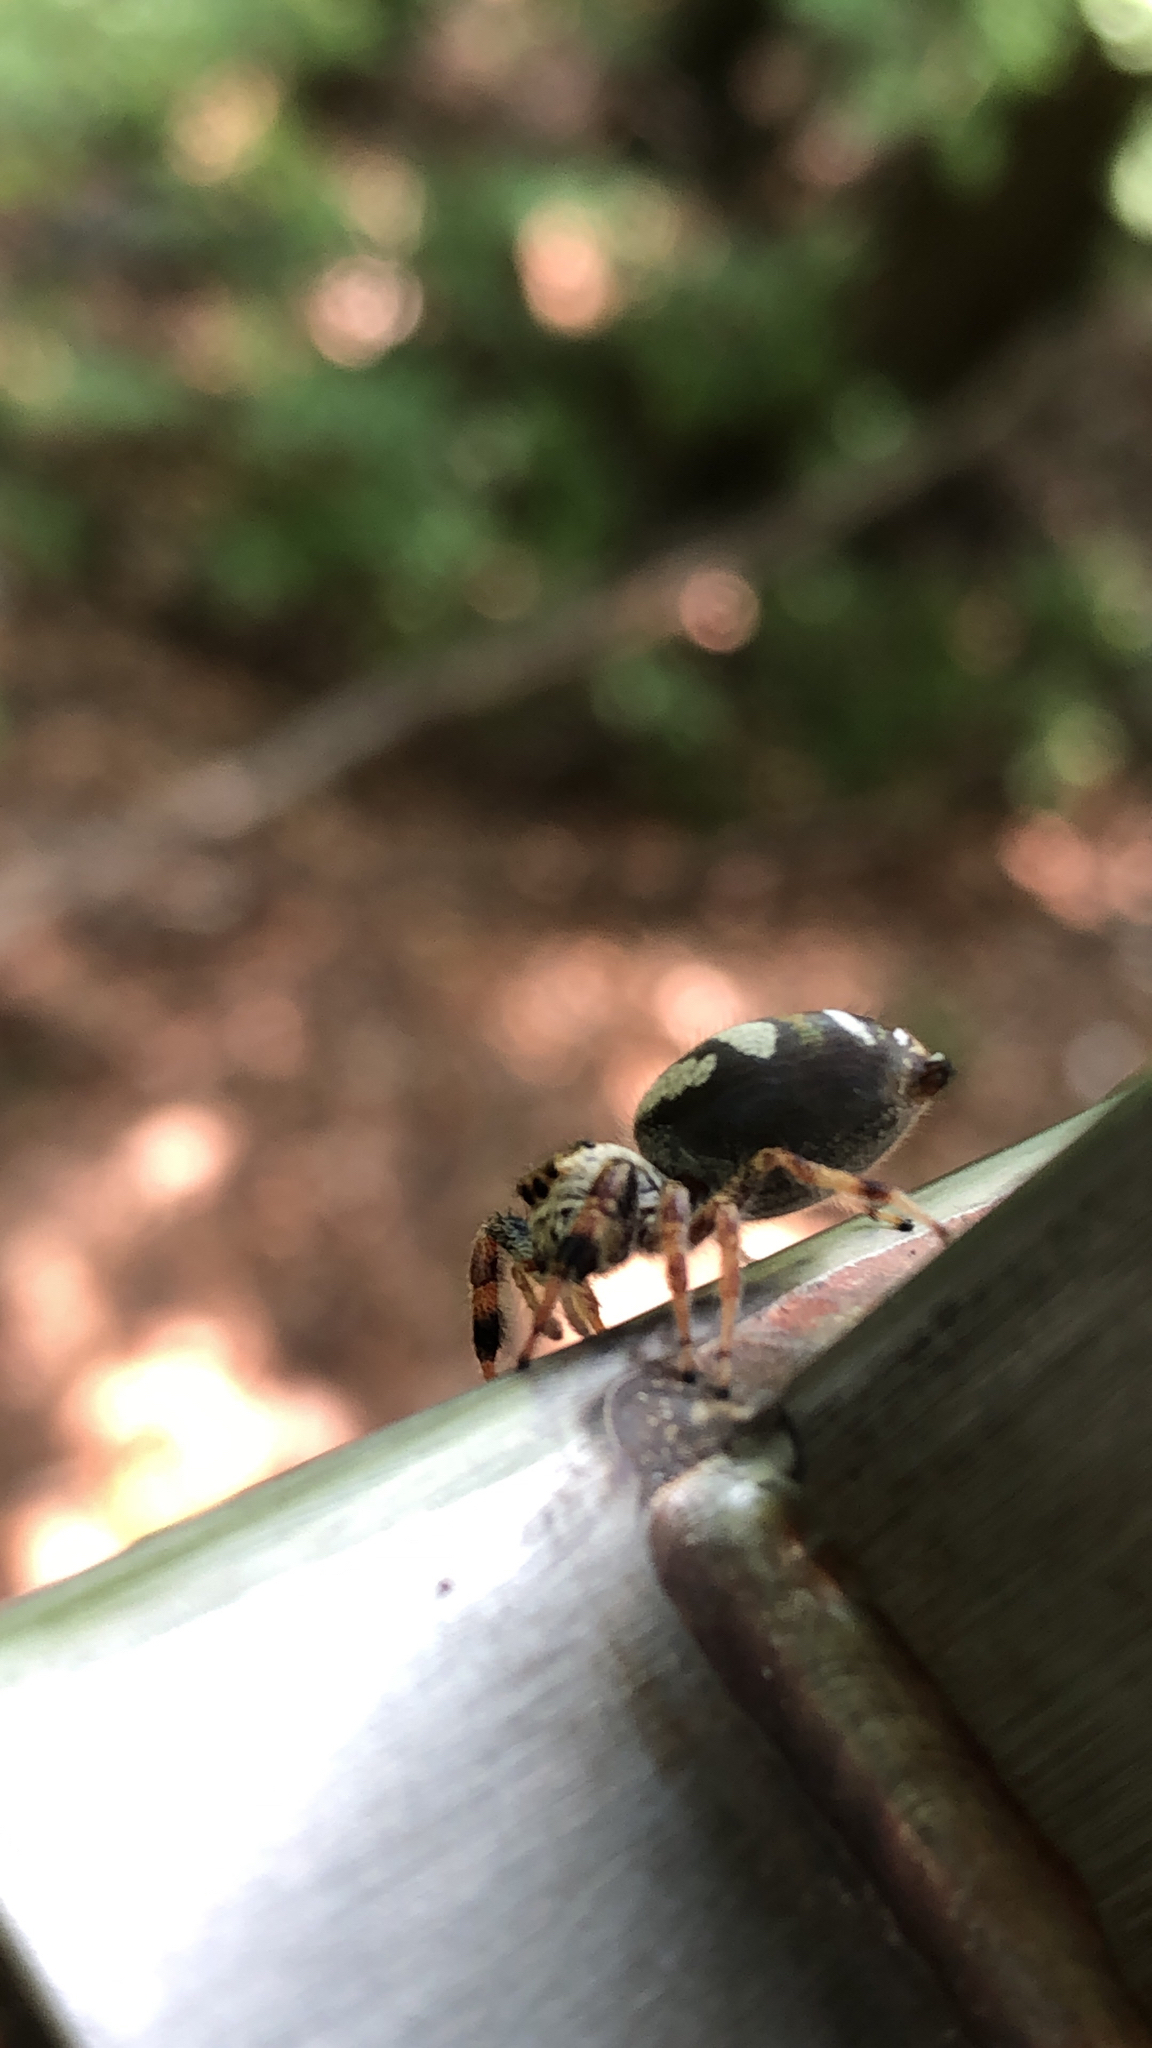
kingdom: Animalia
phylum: Arthropoda
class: Arachnida
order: Araneae
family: Salticidae
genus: Paraphidippus
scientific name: Paraphidippus aurantius
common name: Jumping spiders
